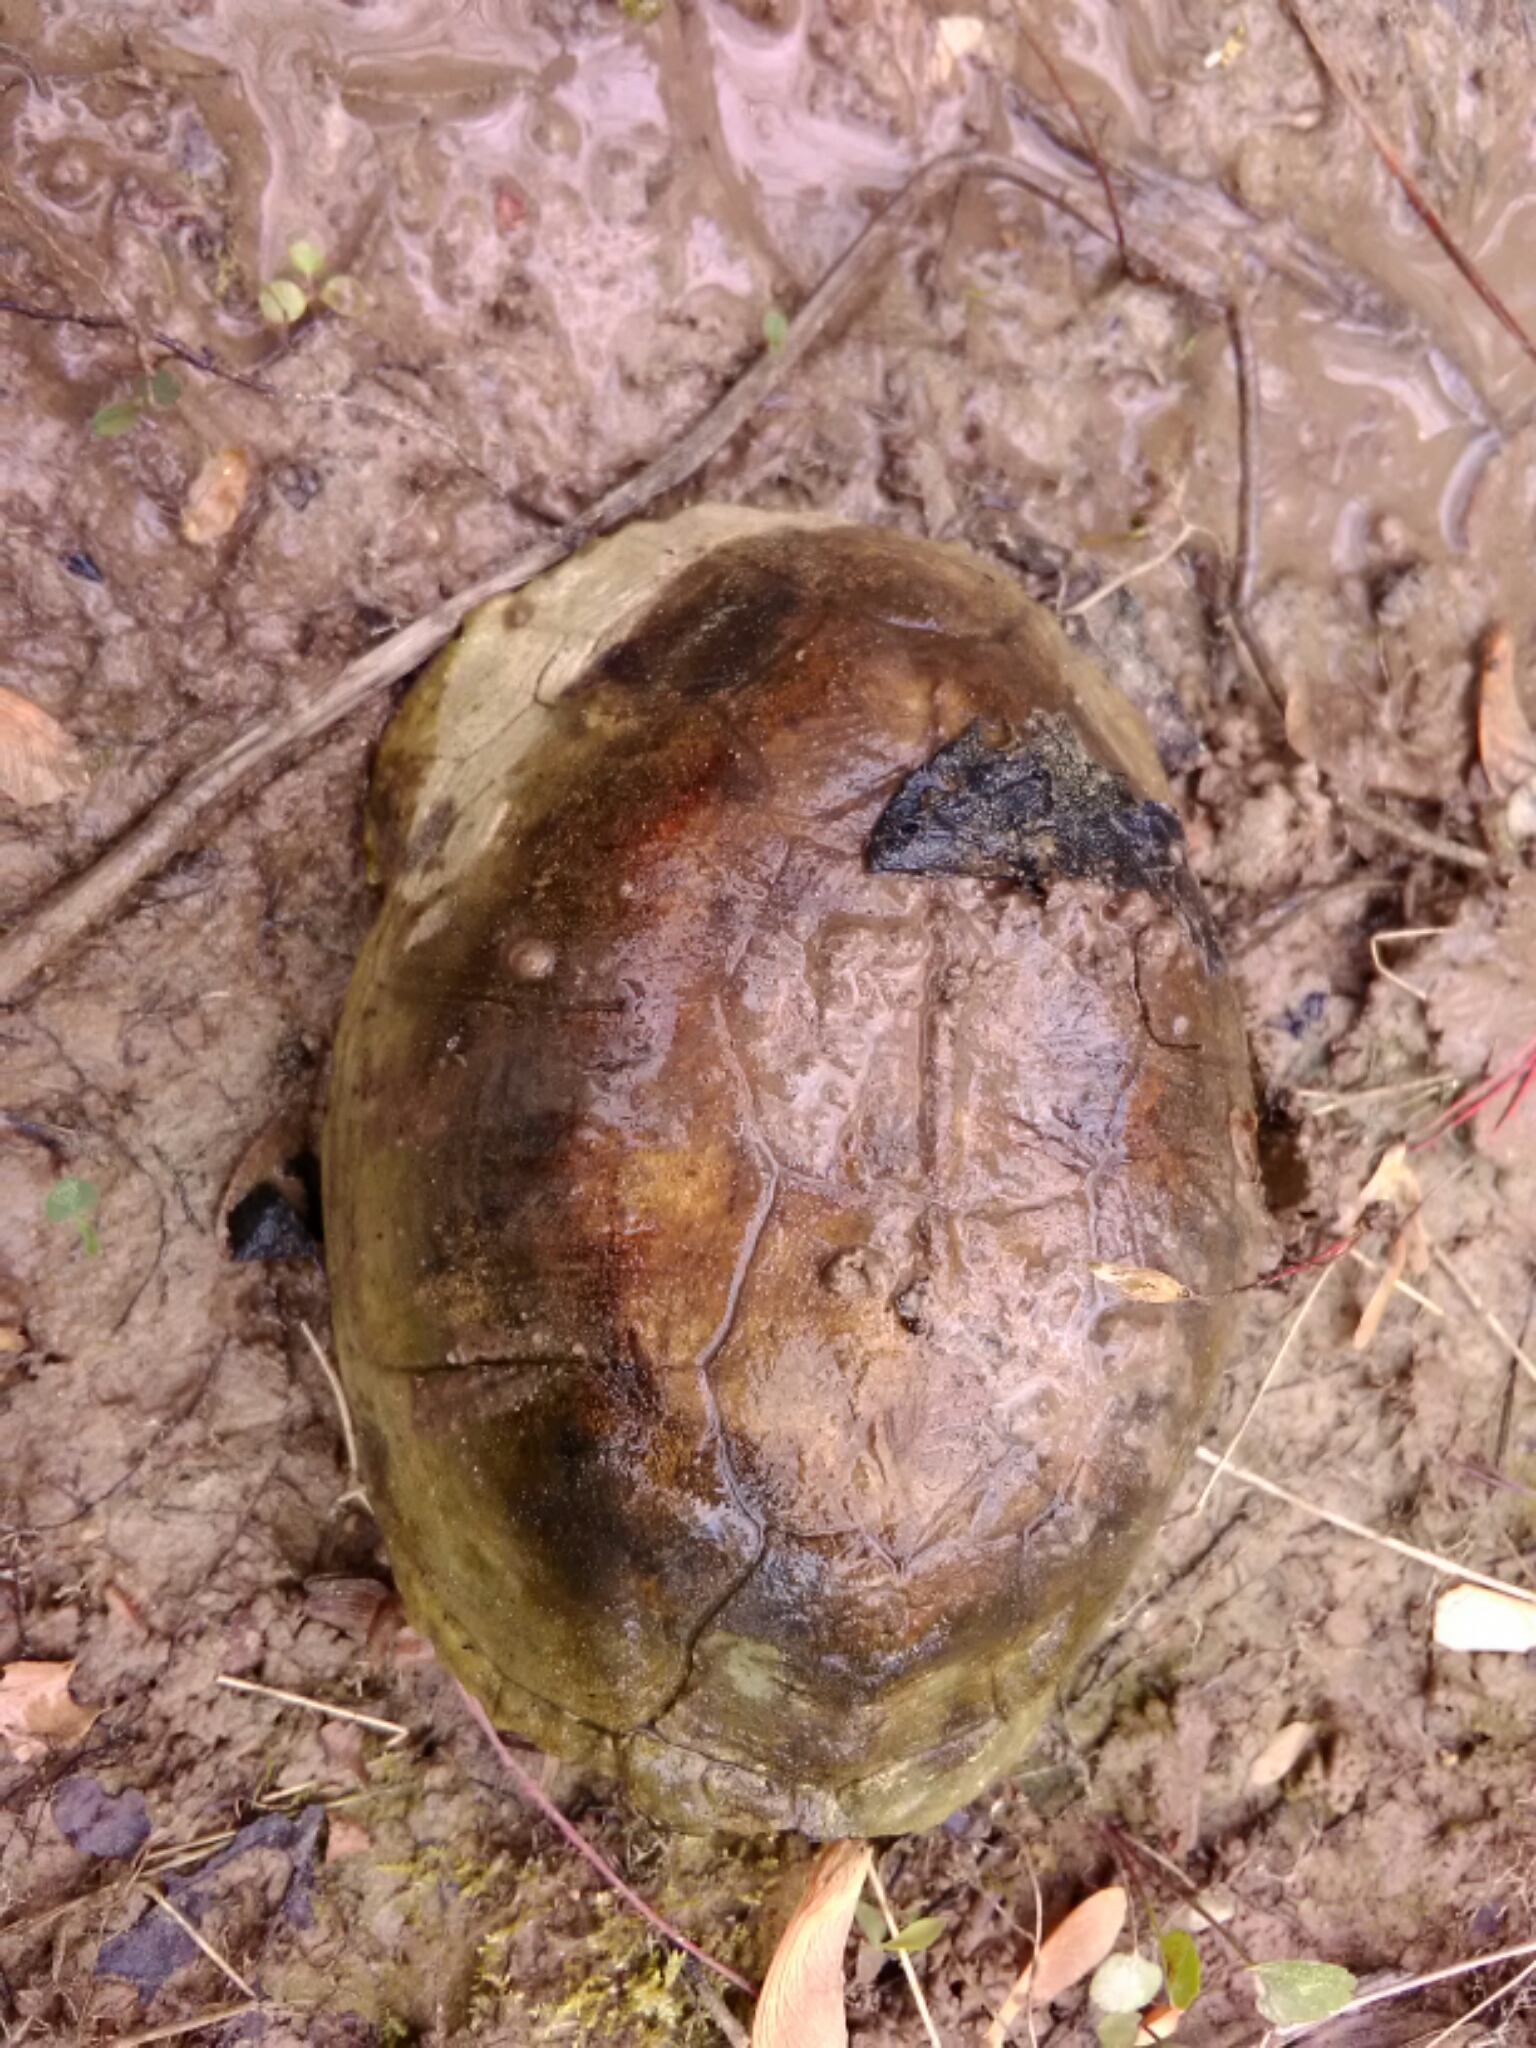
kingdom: Animalia
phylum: Chordata
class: Testudines
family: Emydidae
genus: Terrapene
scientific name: Terrapene carolina
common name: Common box turtle
